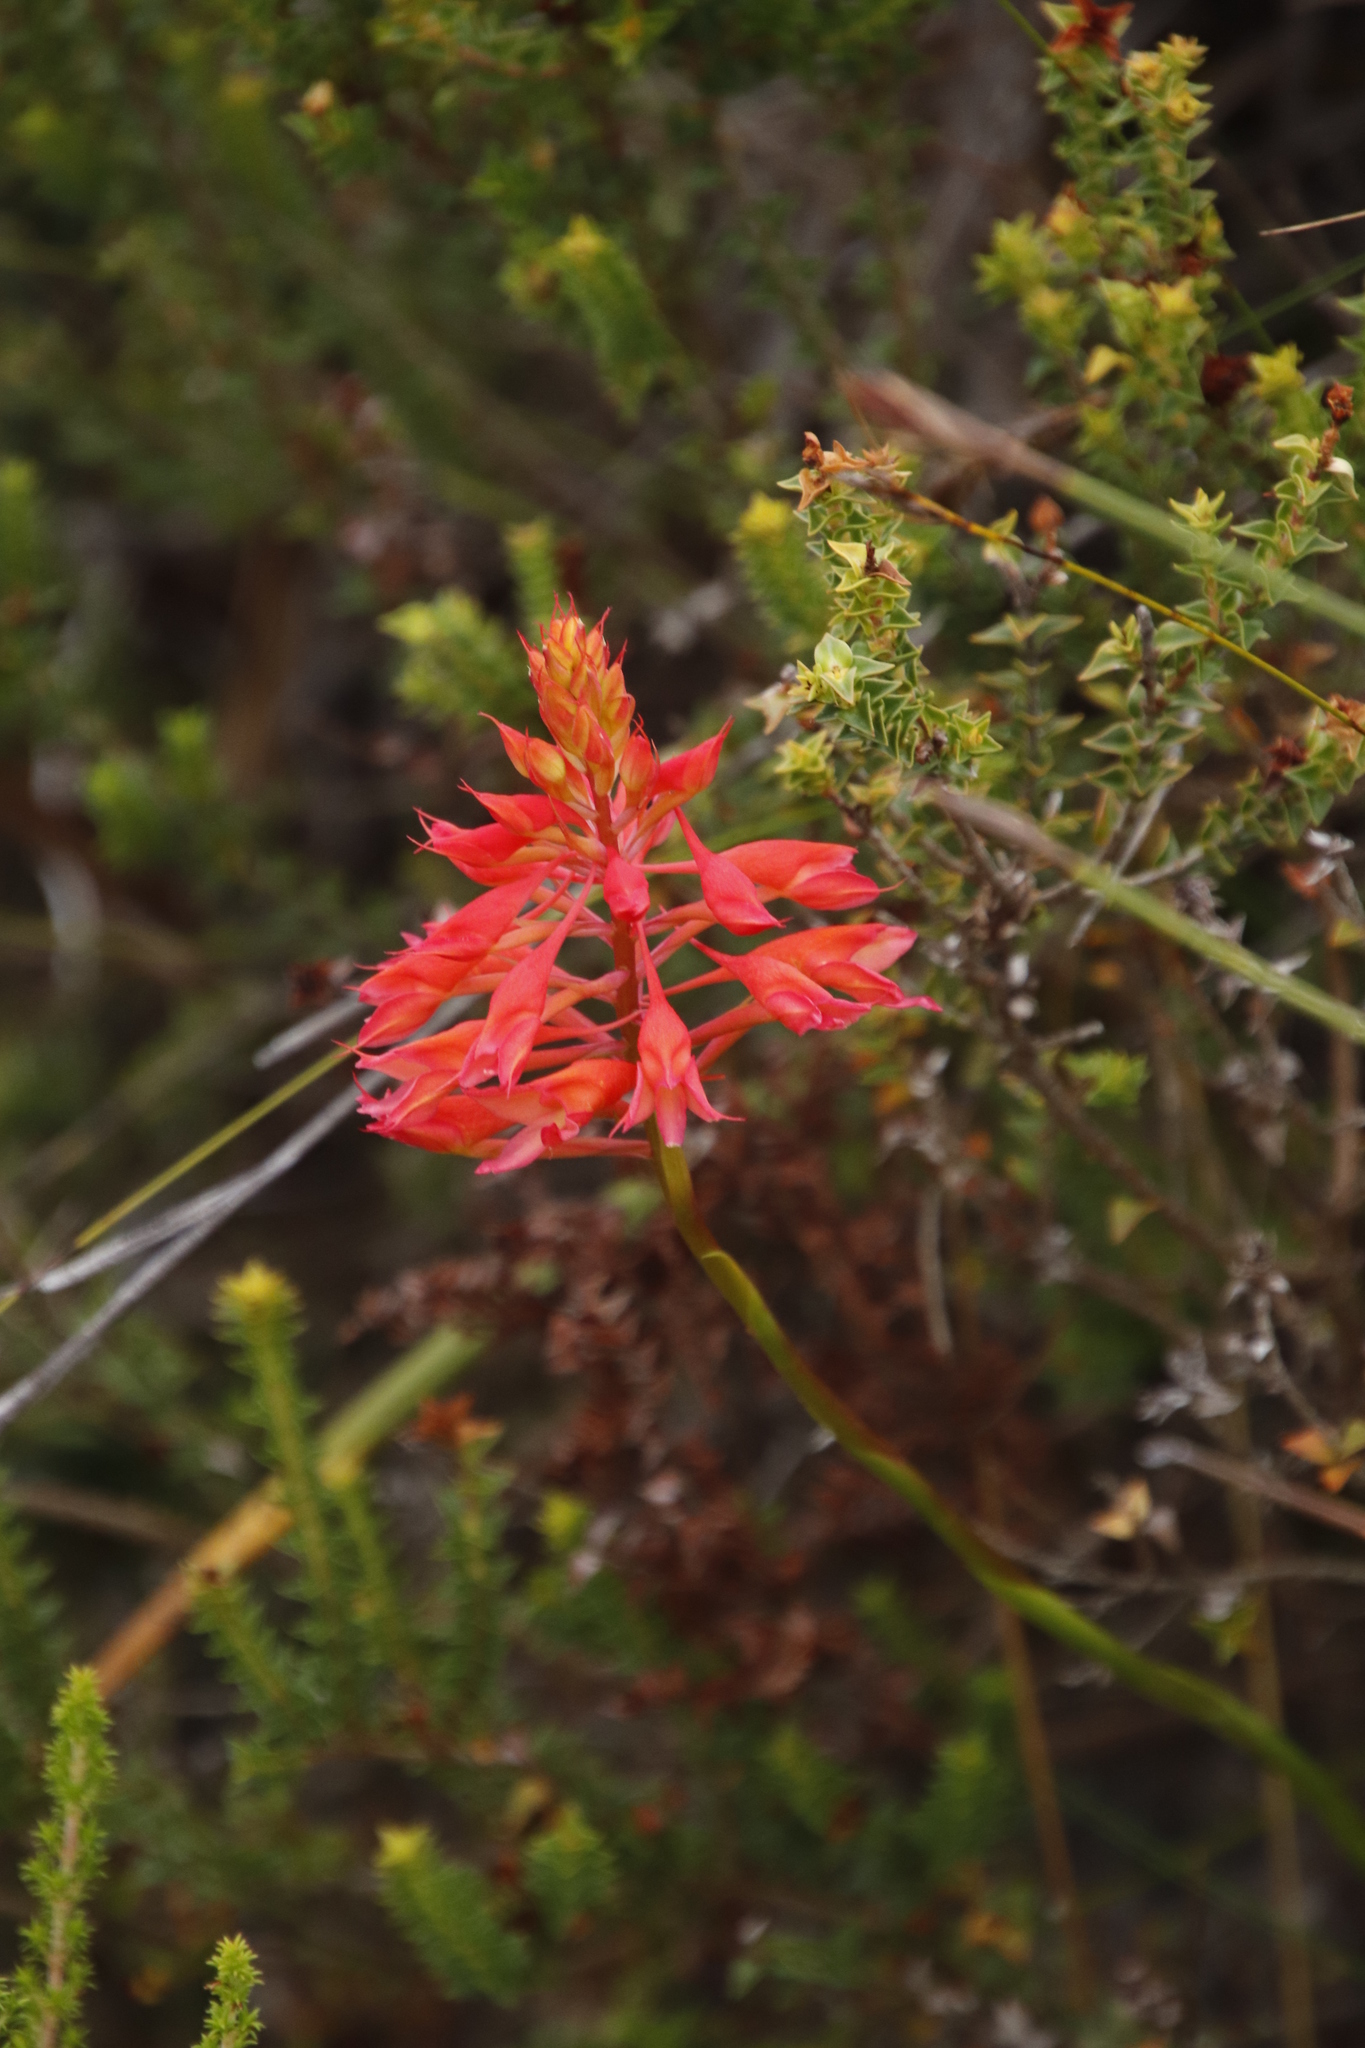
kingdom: Plantae
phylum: Tracheophyta
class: Liliopsida
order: Asparagales
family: Orchidaceae
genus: Disa
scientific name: Disa ferruginea
